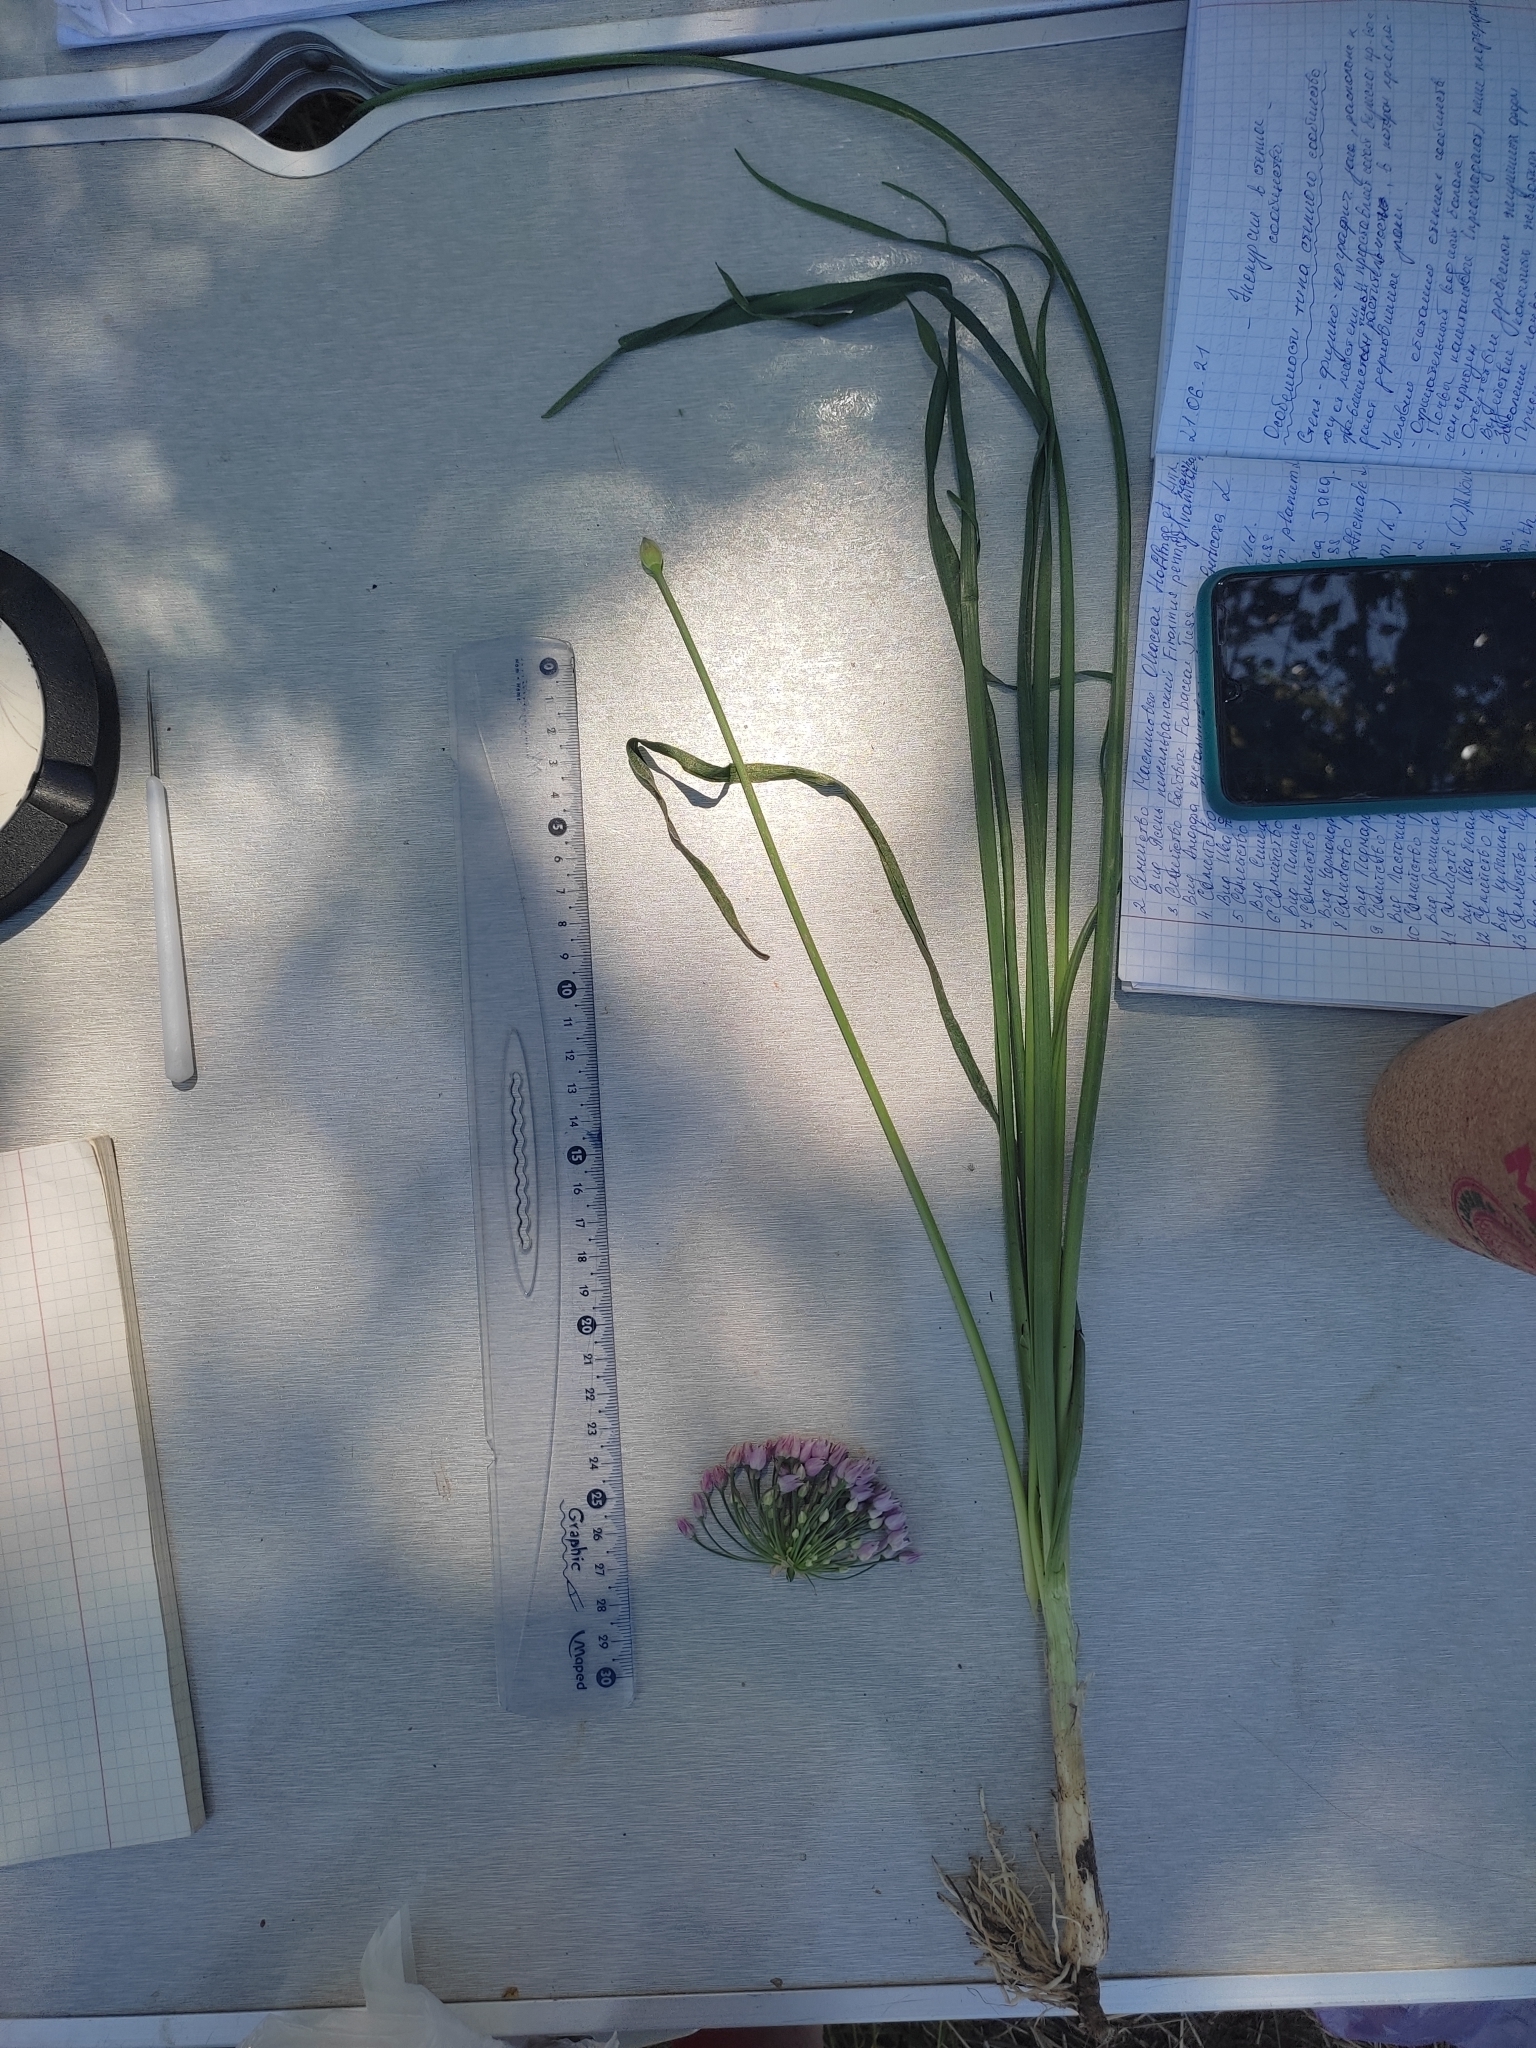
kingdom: Plantae
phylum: Tracheophyta
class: Liliopsida
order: Asparagales
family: Amaryllidaceae
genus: Allium
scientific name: Allium angulosum
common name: Mouse garlic
